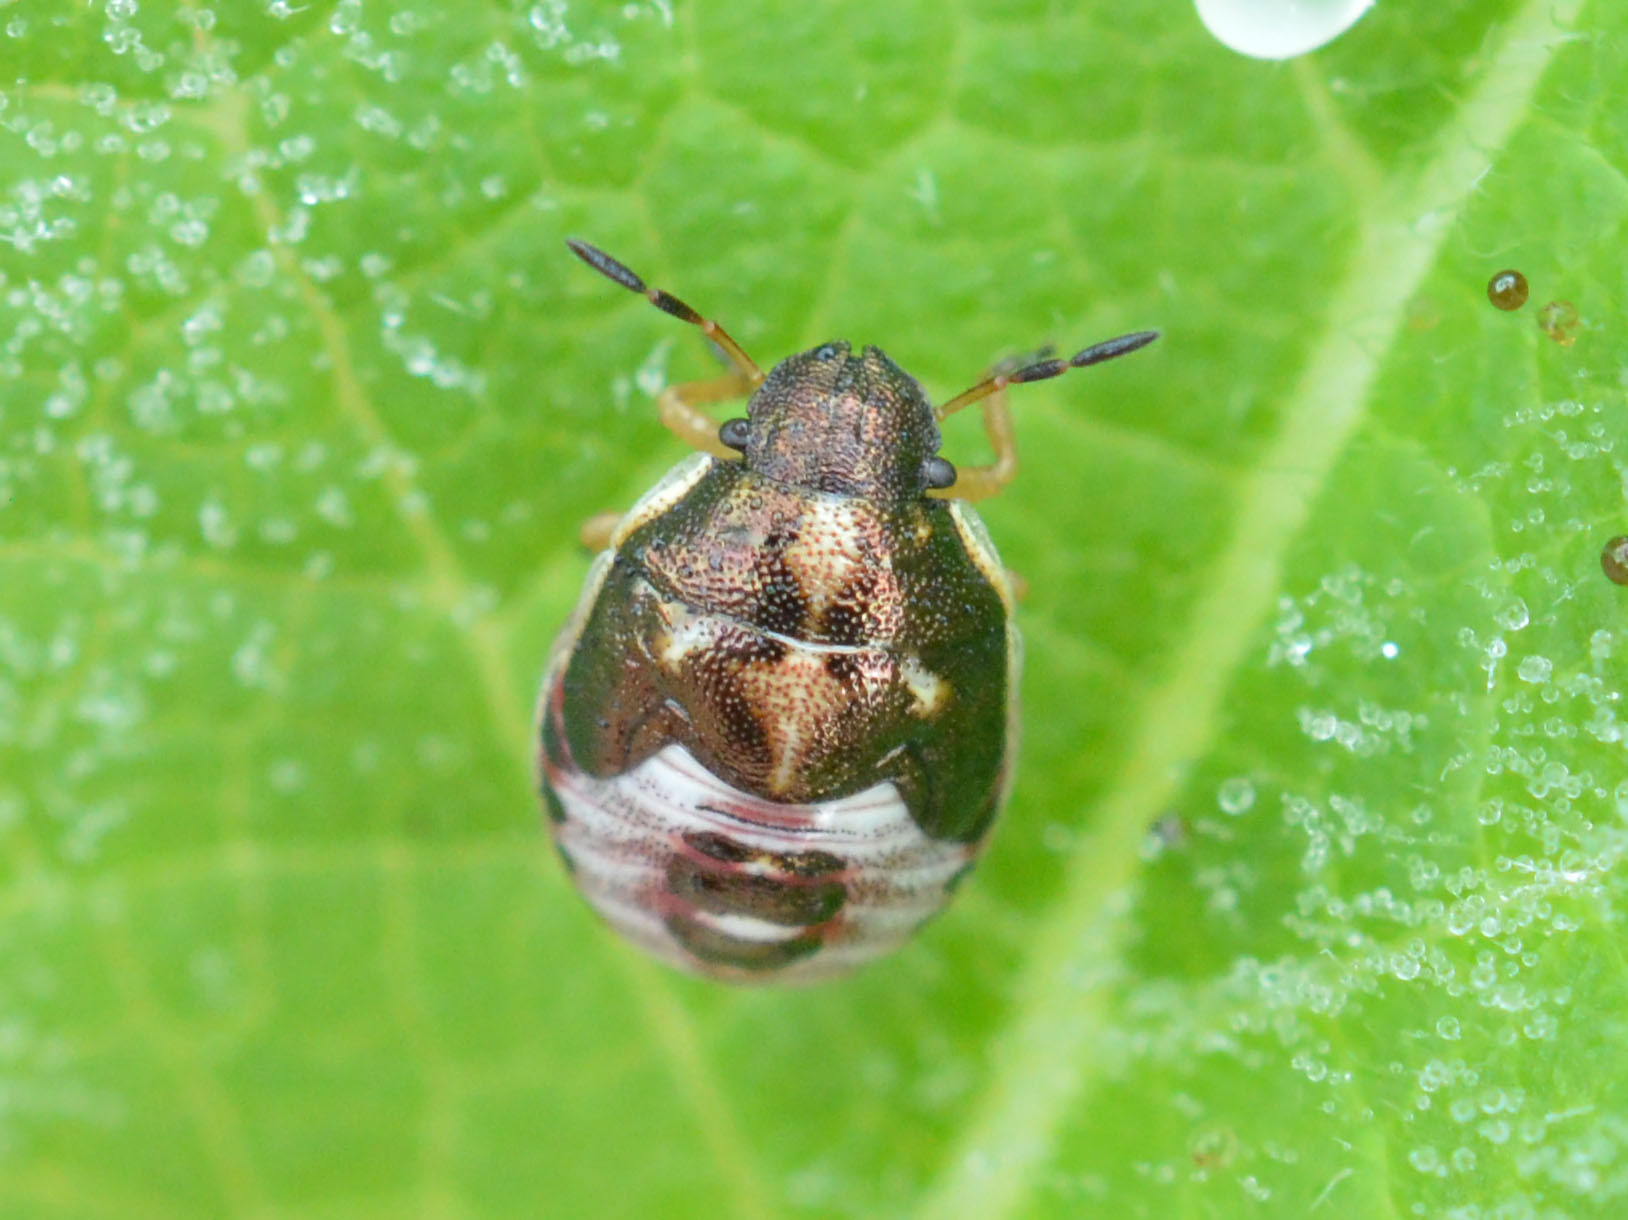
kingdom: Animalia
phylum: Arthropoda
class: Insecta
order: Hemiptera
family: Pentatomidae
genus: Rubiconia
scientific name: Rubiconia intermedia
